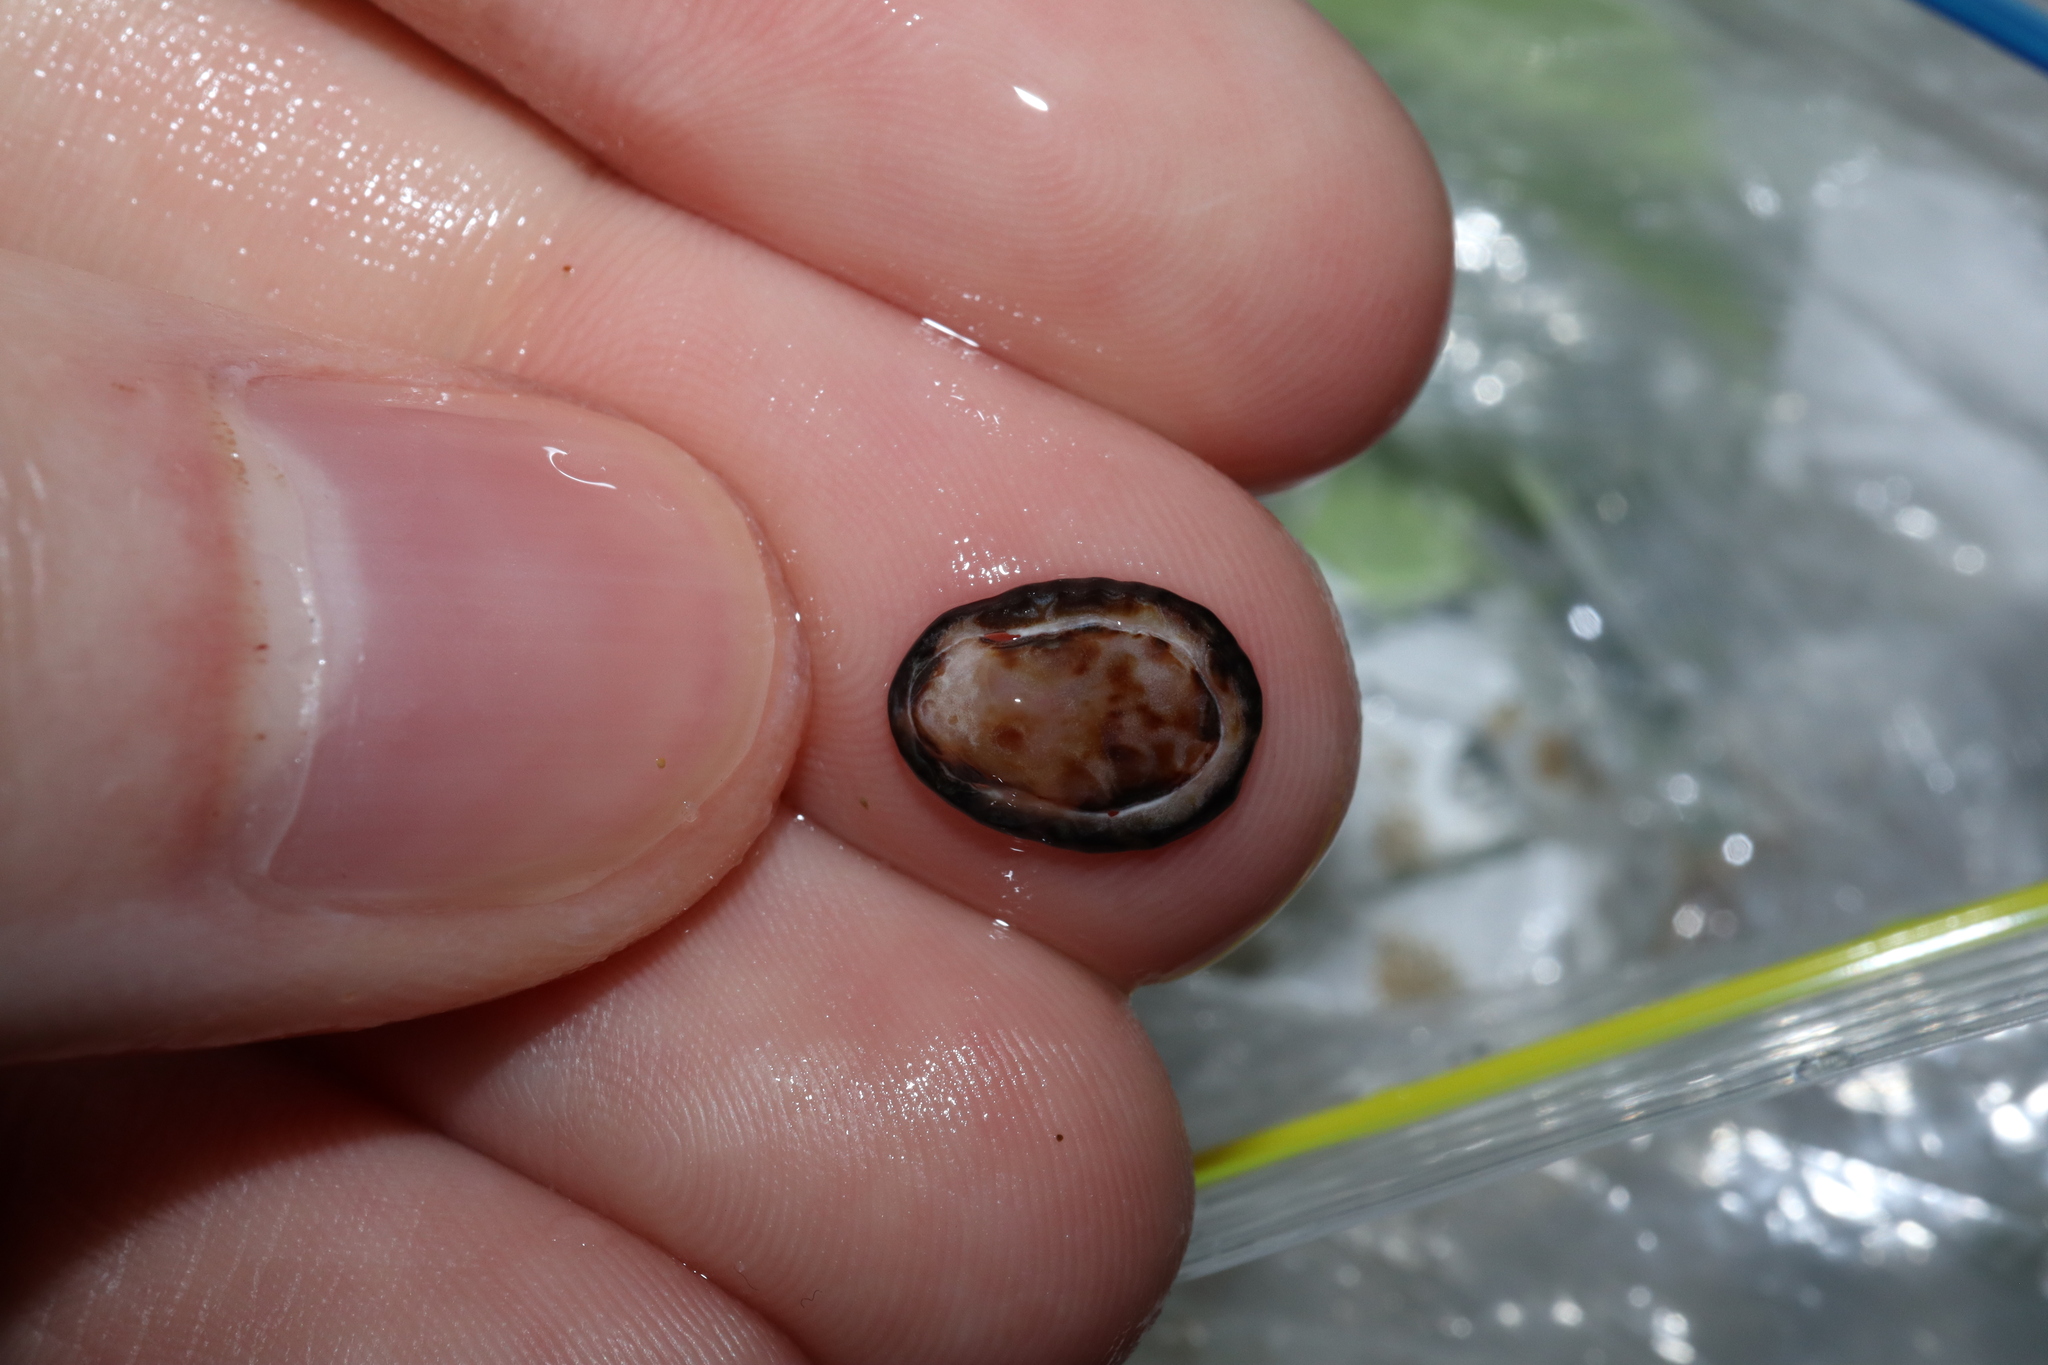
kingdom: Animalia
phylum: Mollusca
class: Gastropoda
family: Lottiidae
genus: Patelloida
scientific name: Patelloida latistrigata
